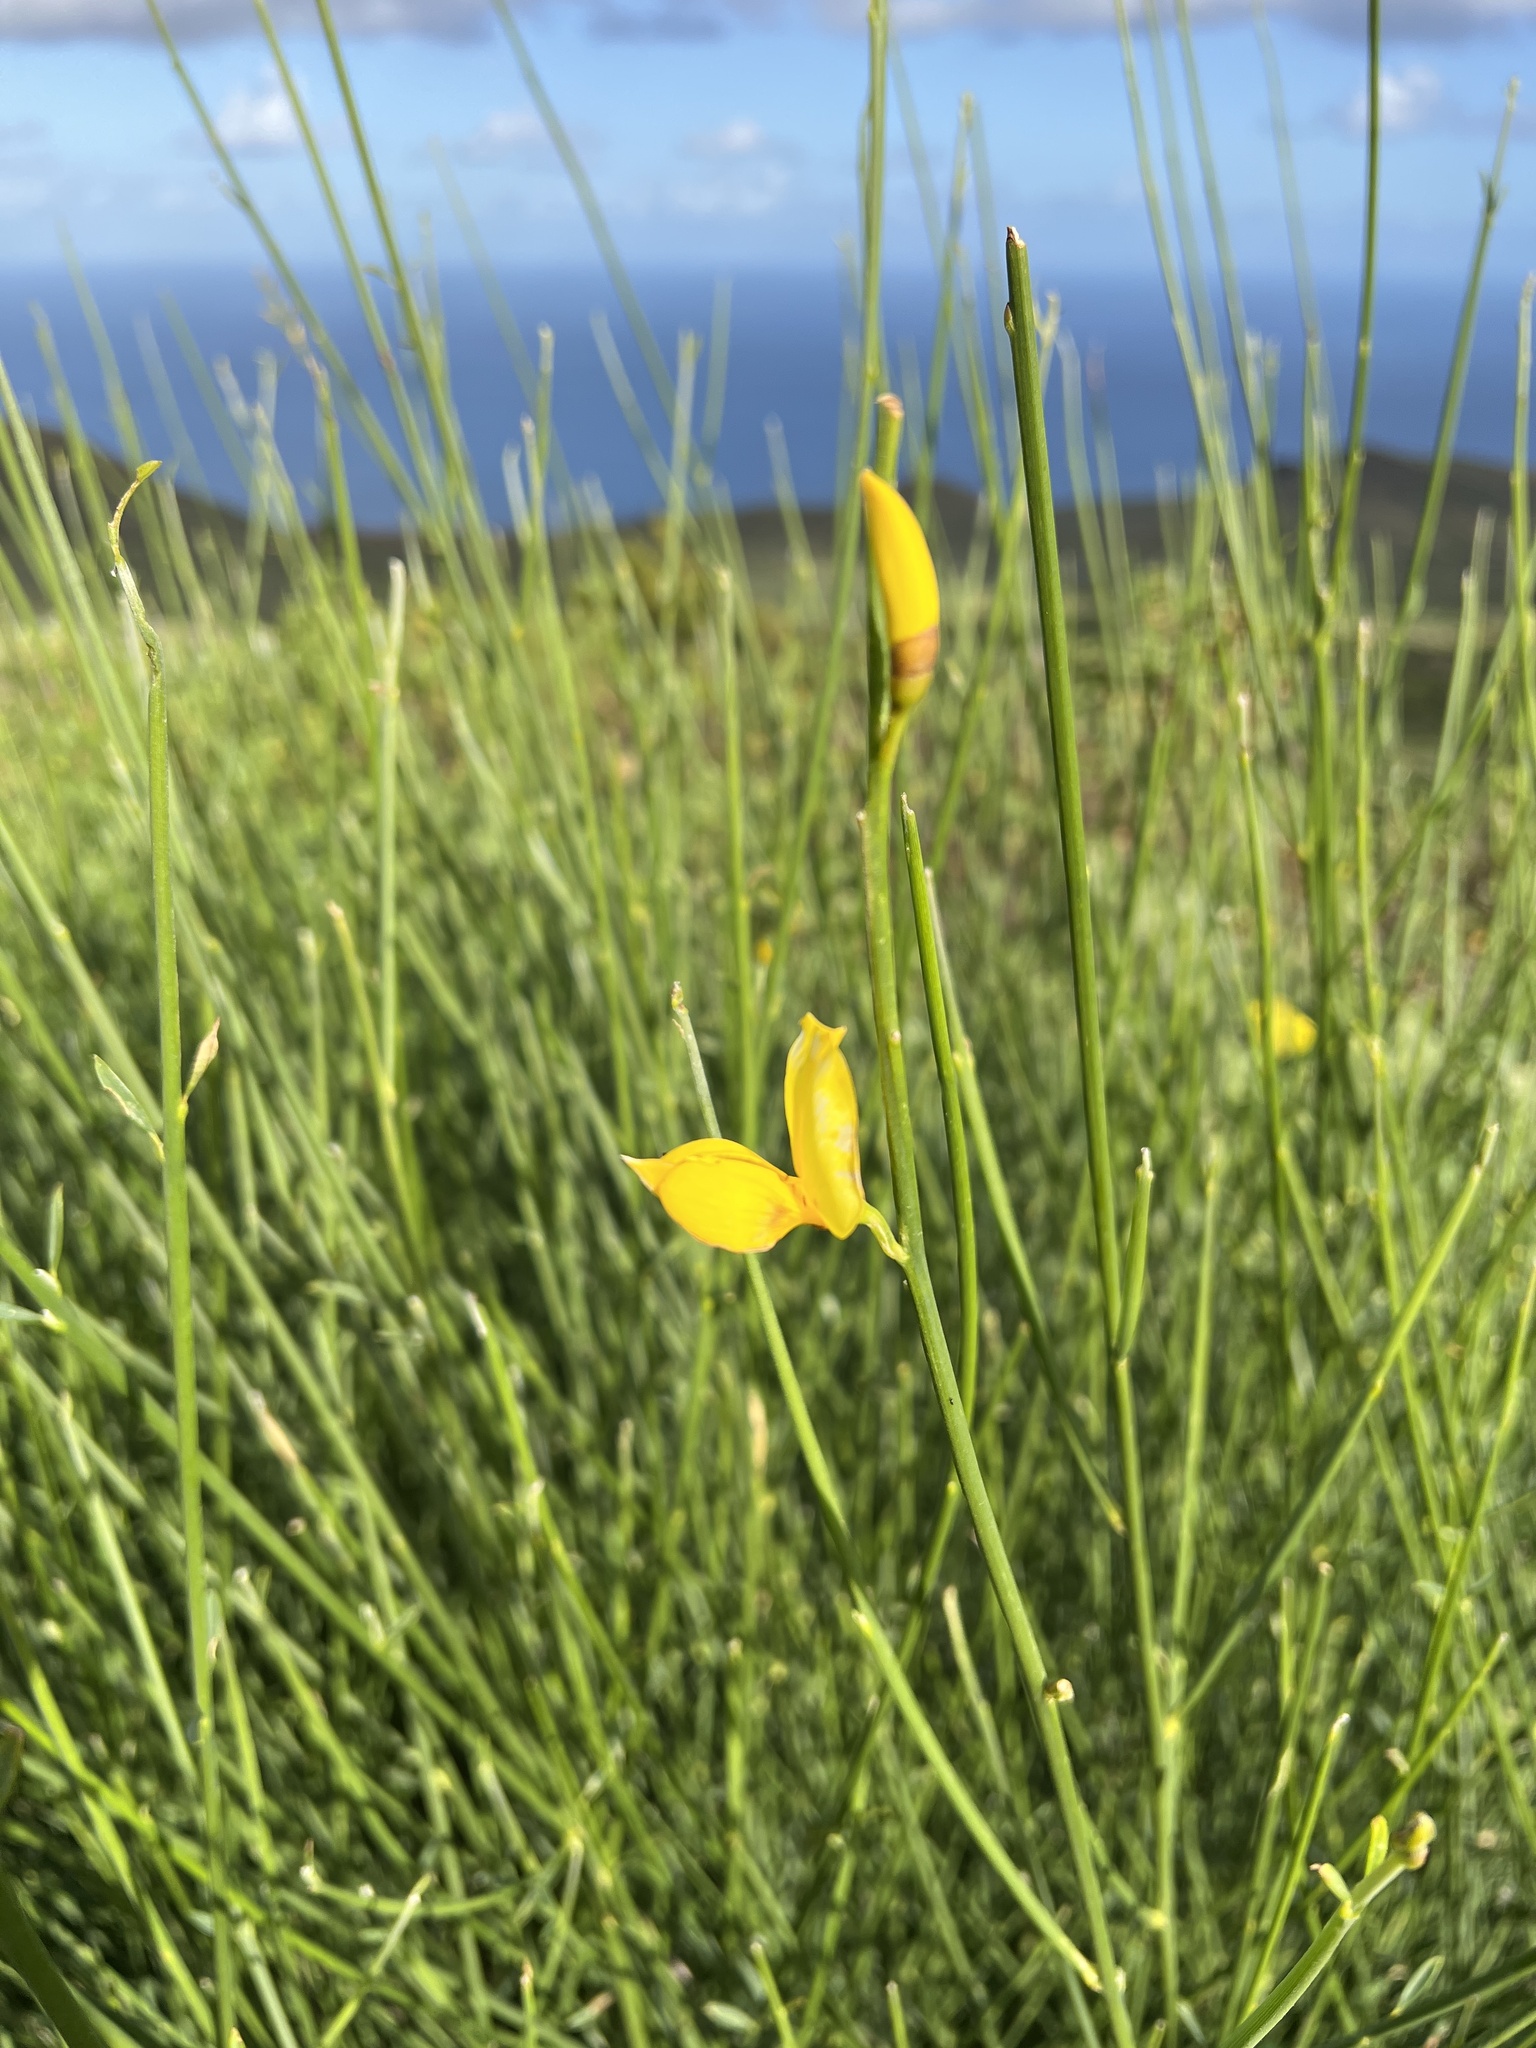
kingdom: Plantae
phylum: Tracheophyta
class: Magnoliopsida
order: Fabales
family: Fabaceae
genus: Spartium
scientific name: Spartium junceum
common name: Spanish broom
